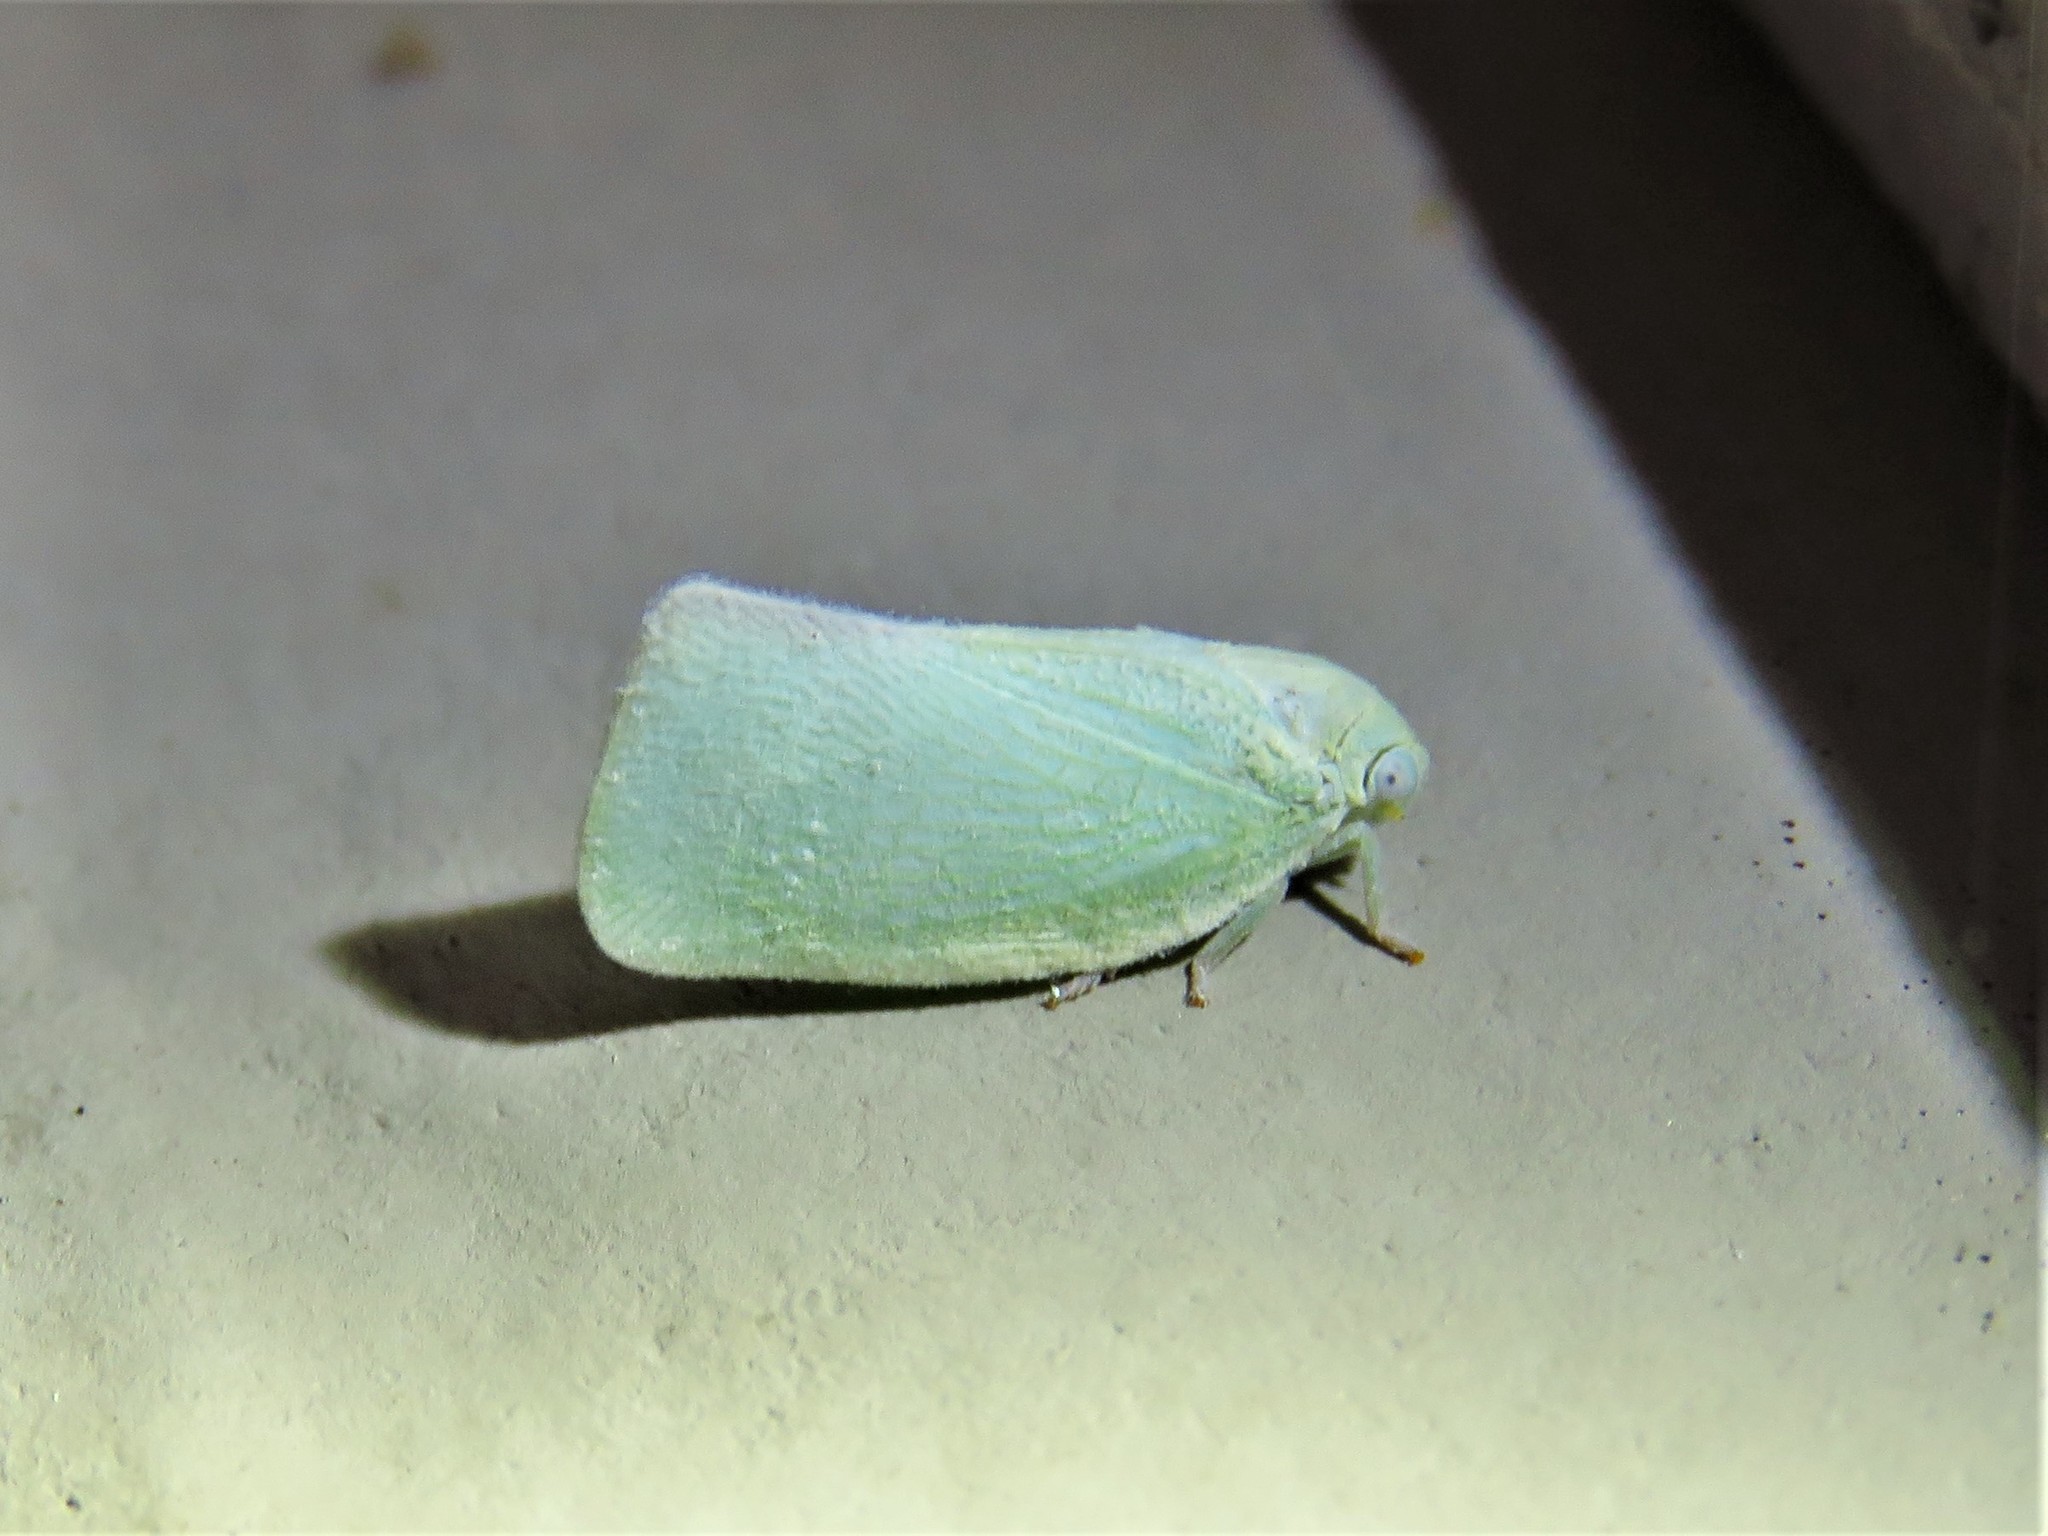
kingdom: Animalia
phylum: Arthropoda
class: Insecta
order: Hemiptera
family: Flatidae
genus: Flatormenis
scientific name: Flatormenis proxima
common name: Northern flatid planthopper
